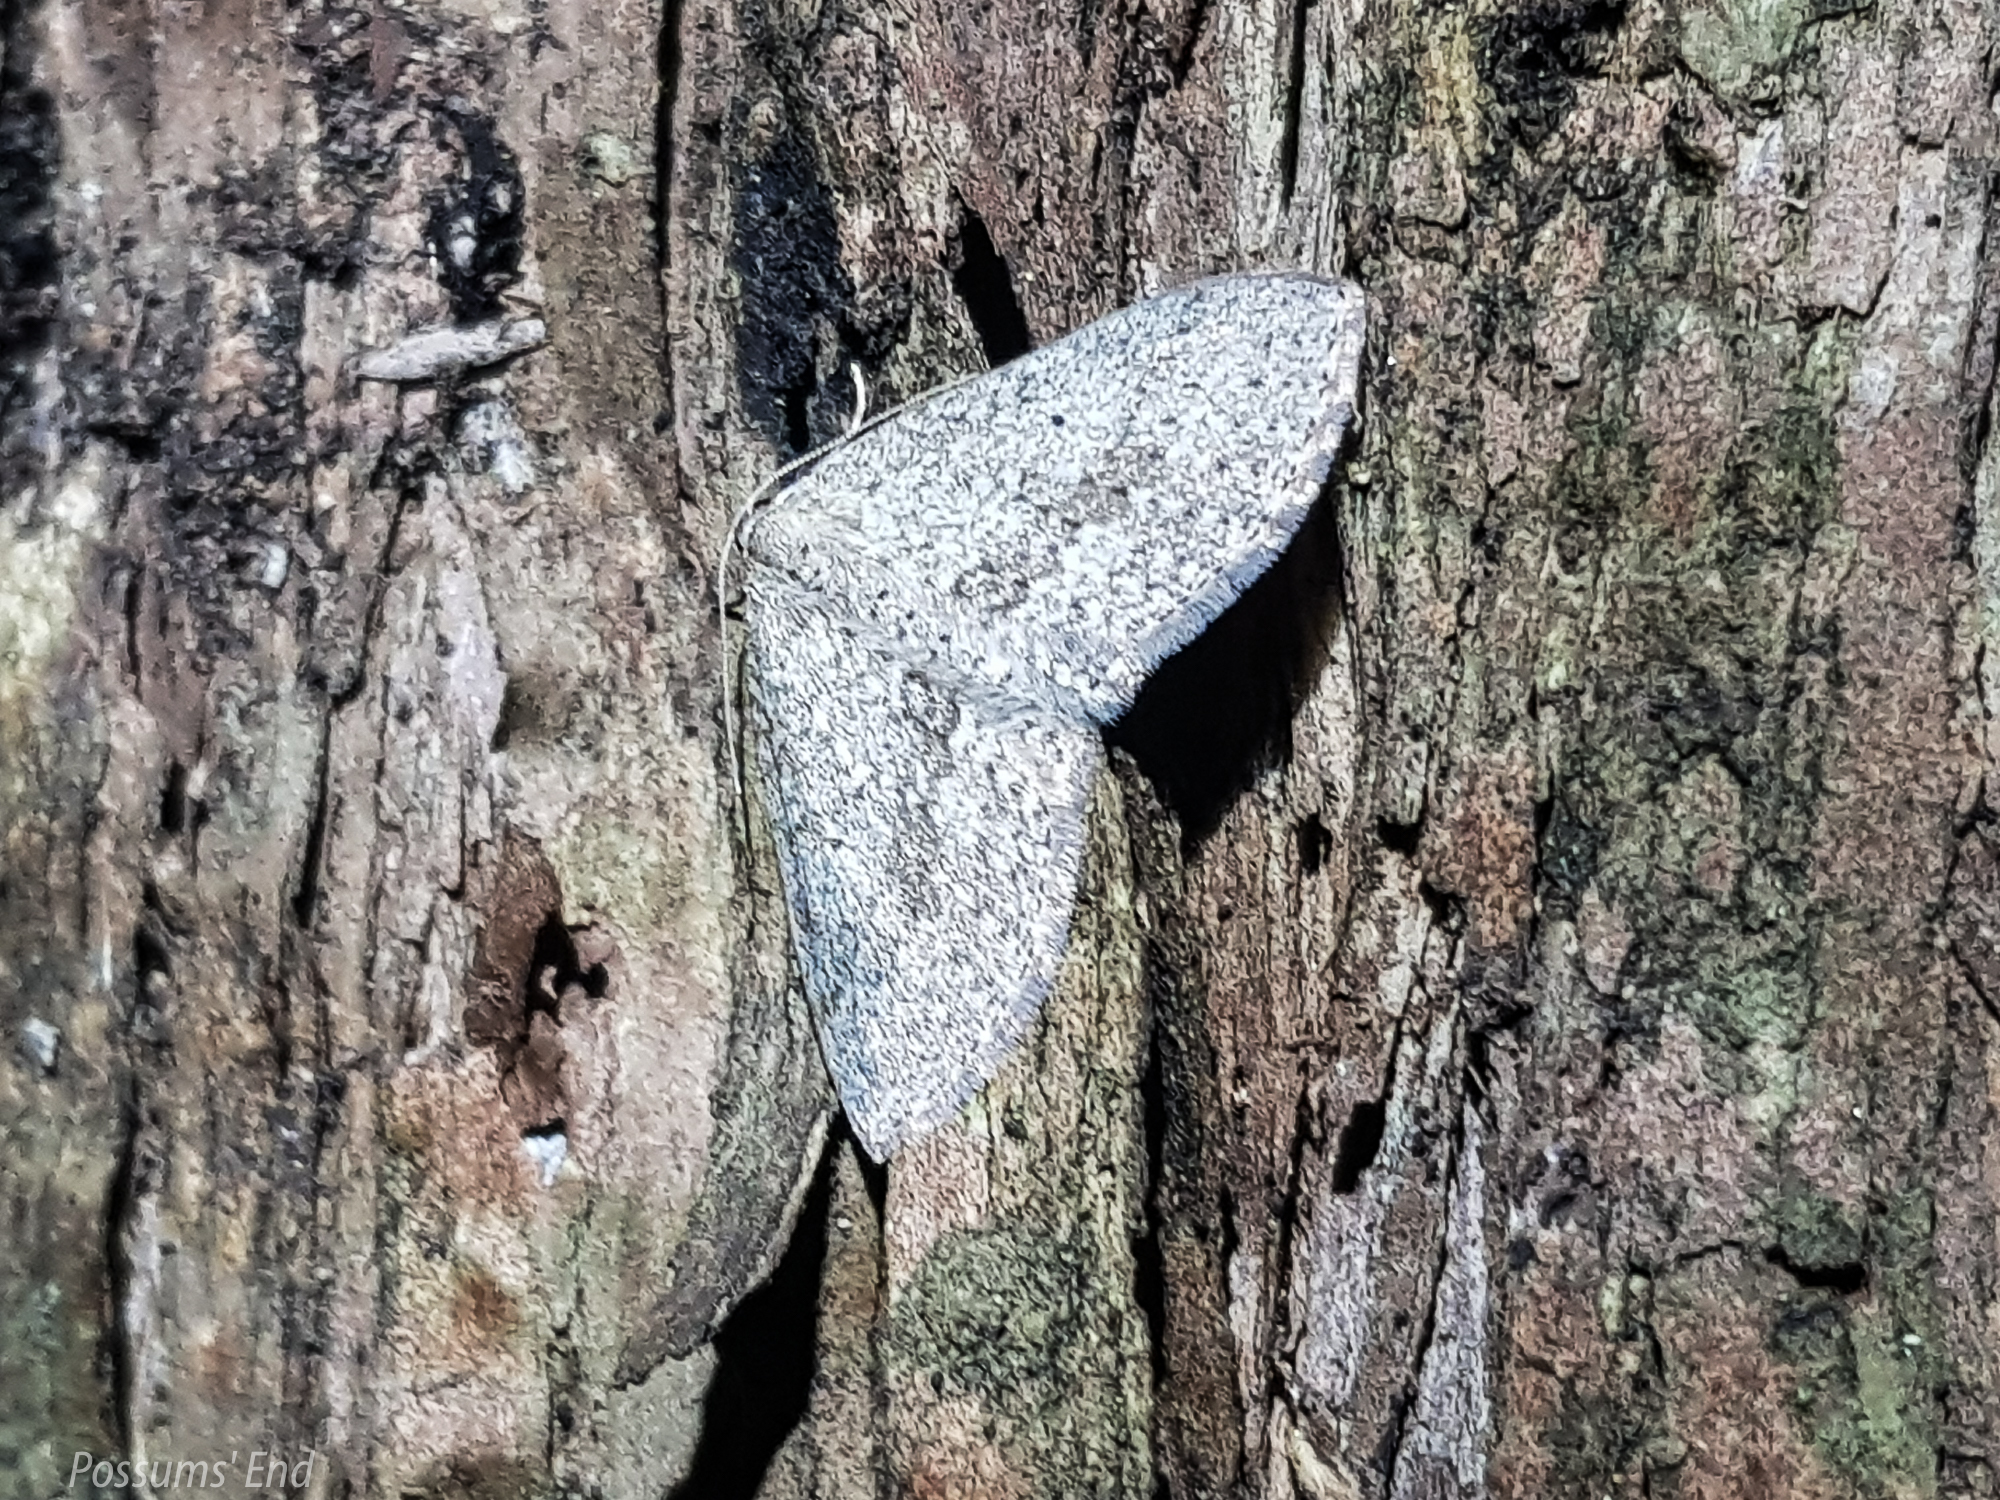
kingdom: Animalia
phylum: Arthropoda
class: Insecta
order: Lepidoptera
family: Geometridae
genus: Poecilasthena
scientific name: Poecilasthena schistaria
